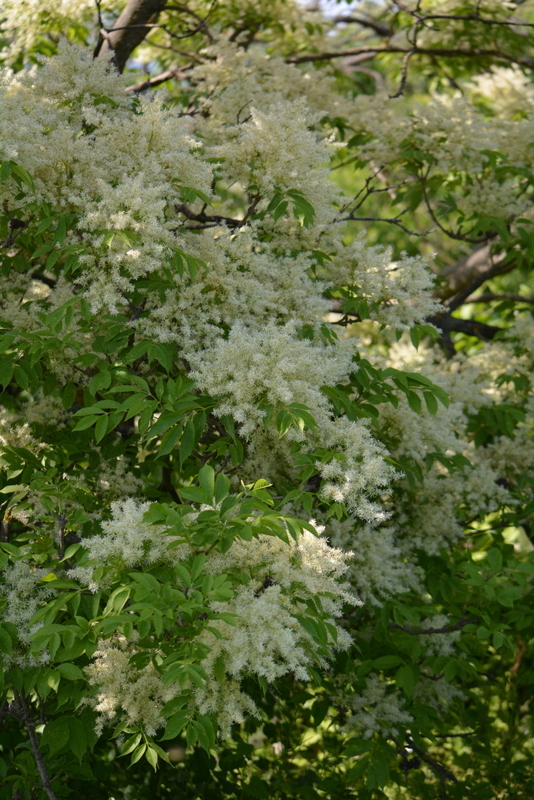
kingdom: Plantae
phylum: Tracheophyta
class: Magnoliopsida
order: Lamiales
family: Oleaceae
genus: Fraxinus
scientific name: Fraxinus ornus
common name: Manna ash
